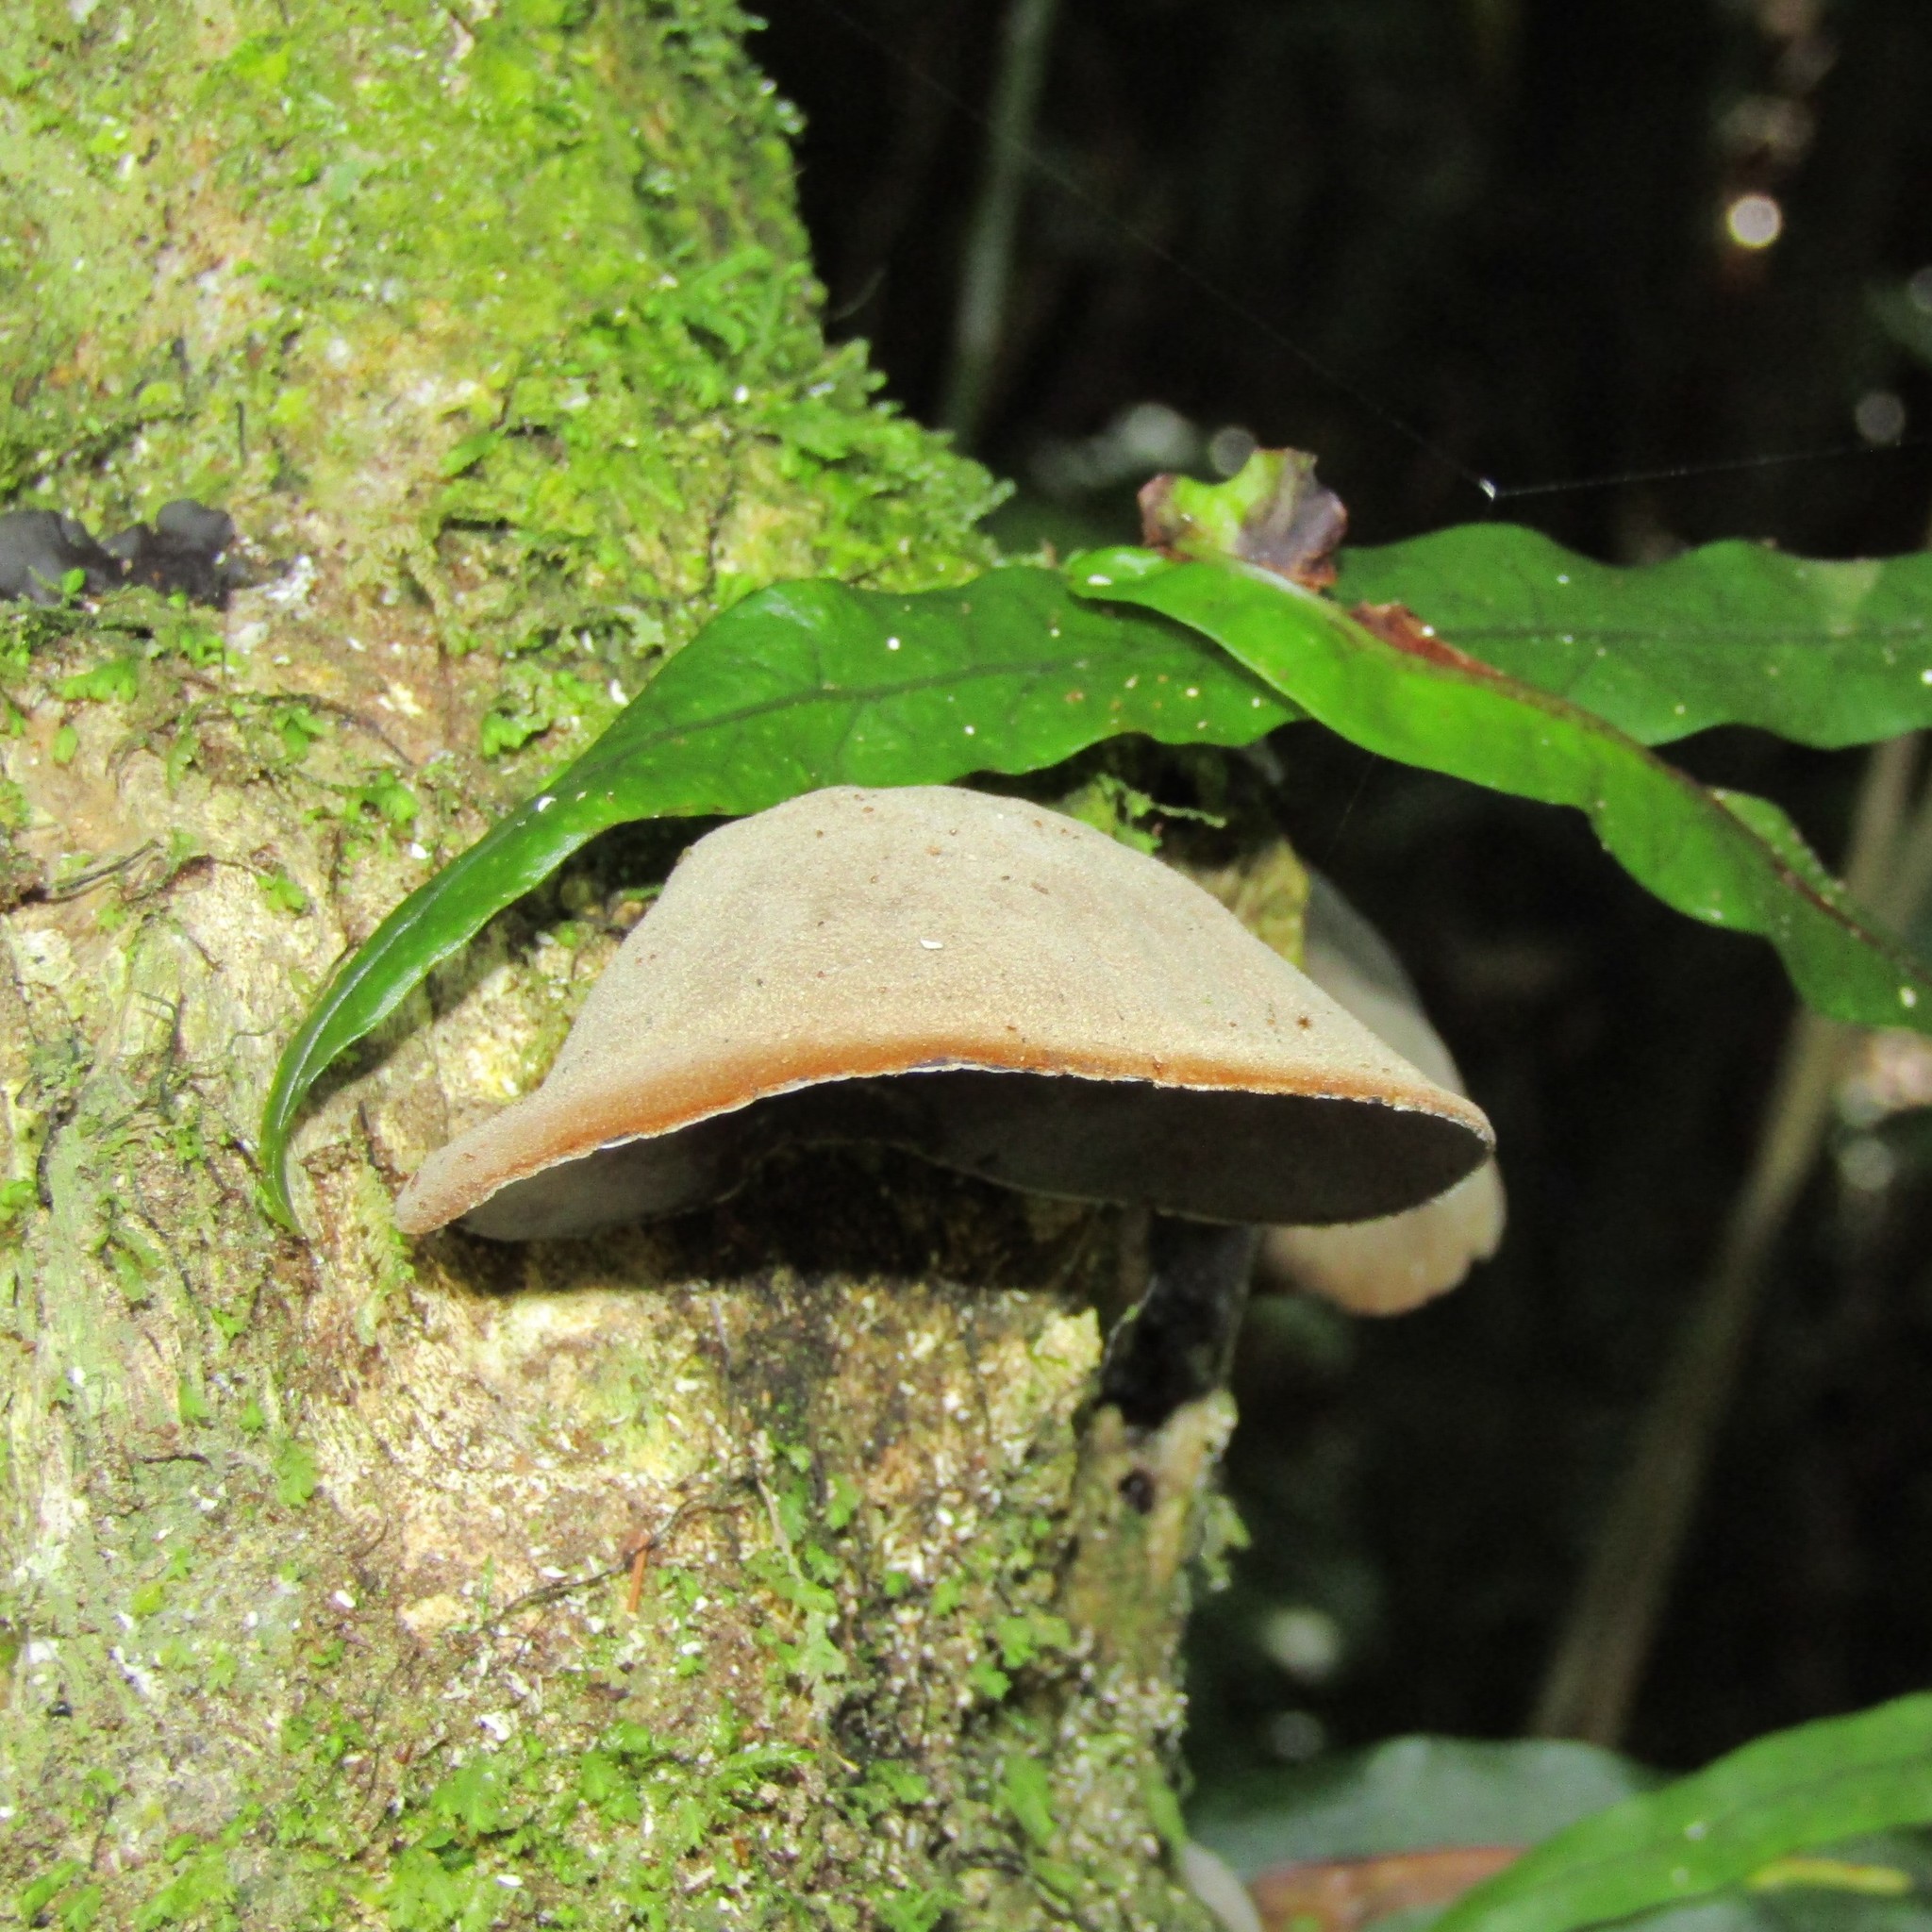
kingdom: Fungi
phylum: Basidiomycota
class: Agaricomycetes
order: Auriculariales
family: Auriculariaceae
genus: Auricularia
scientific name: Auricularia cornea
